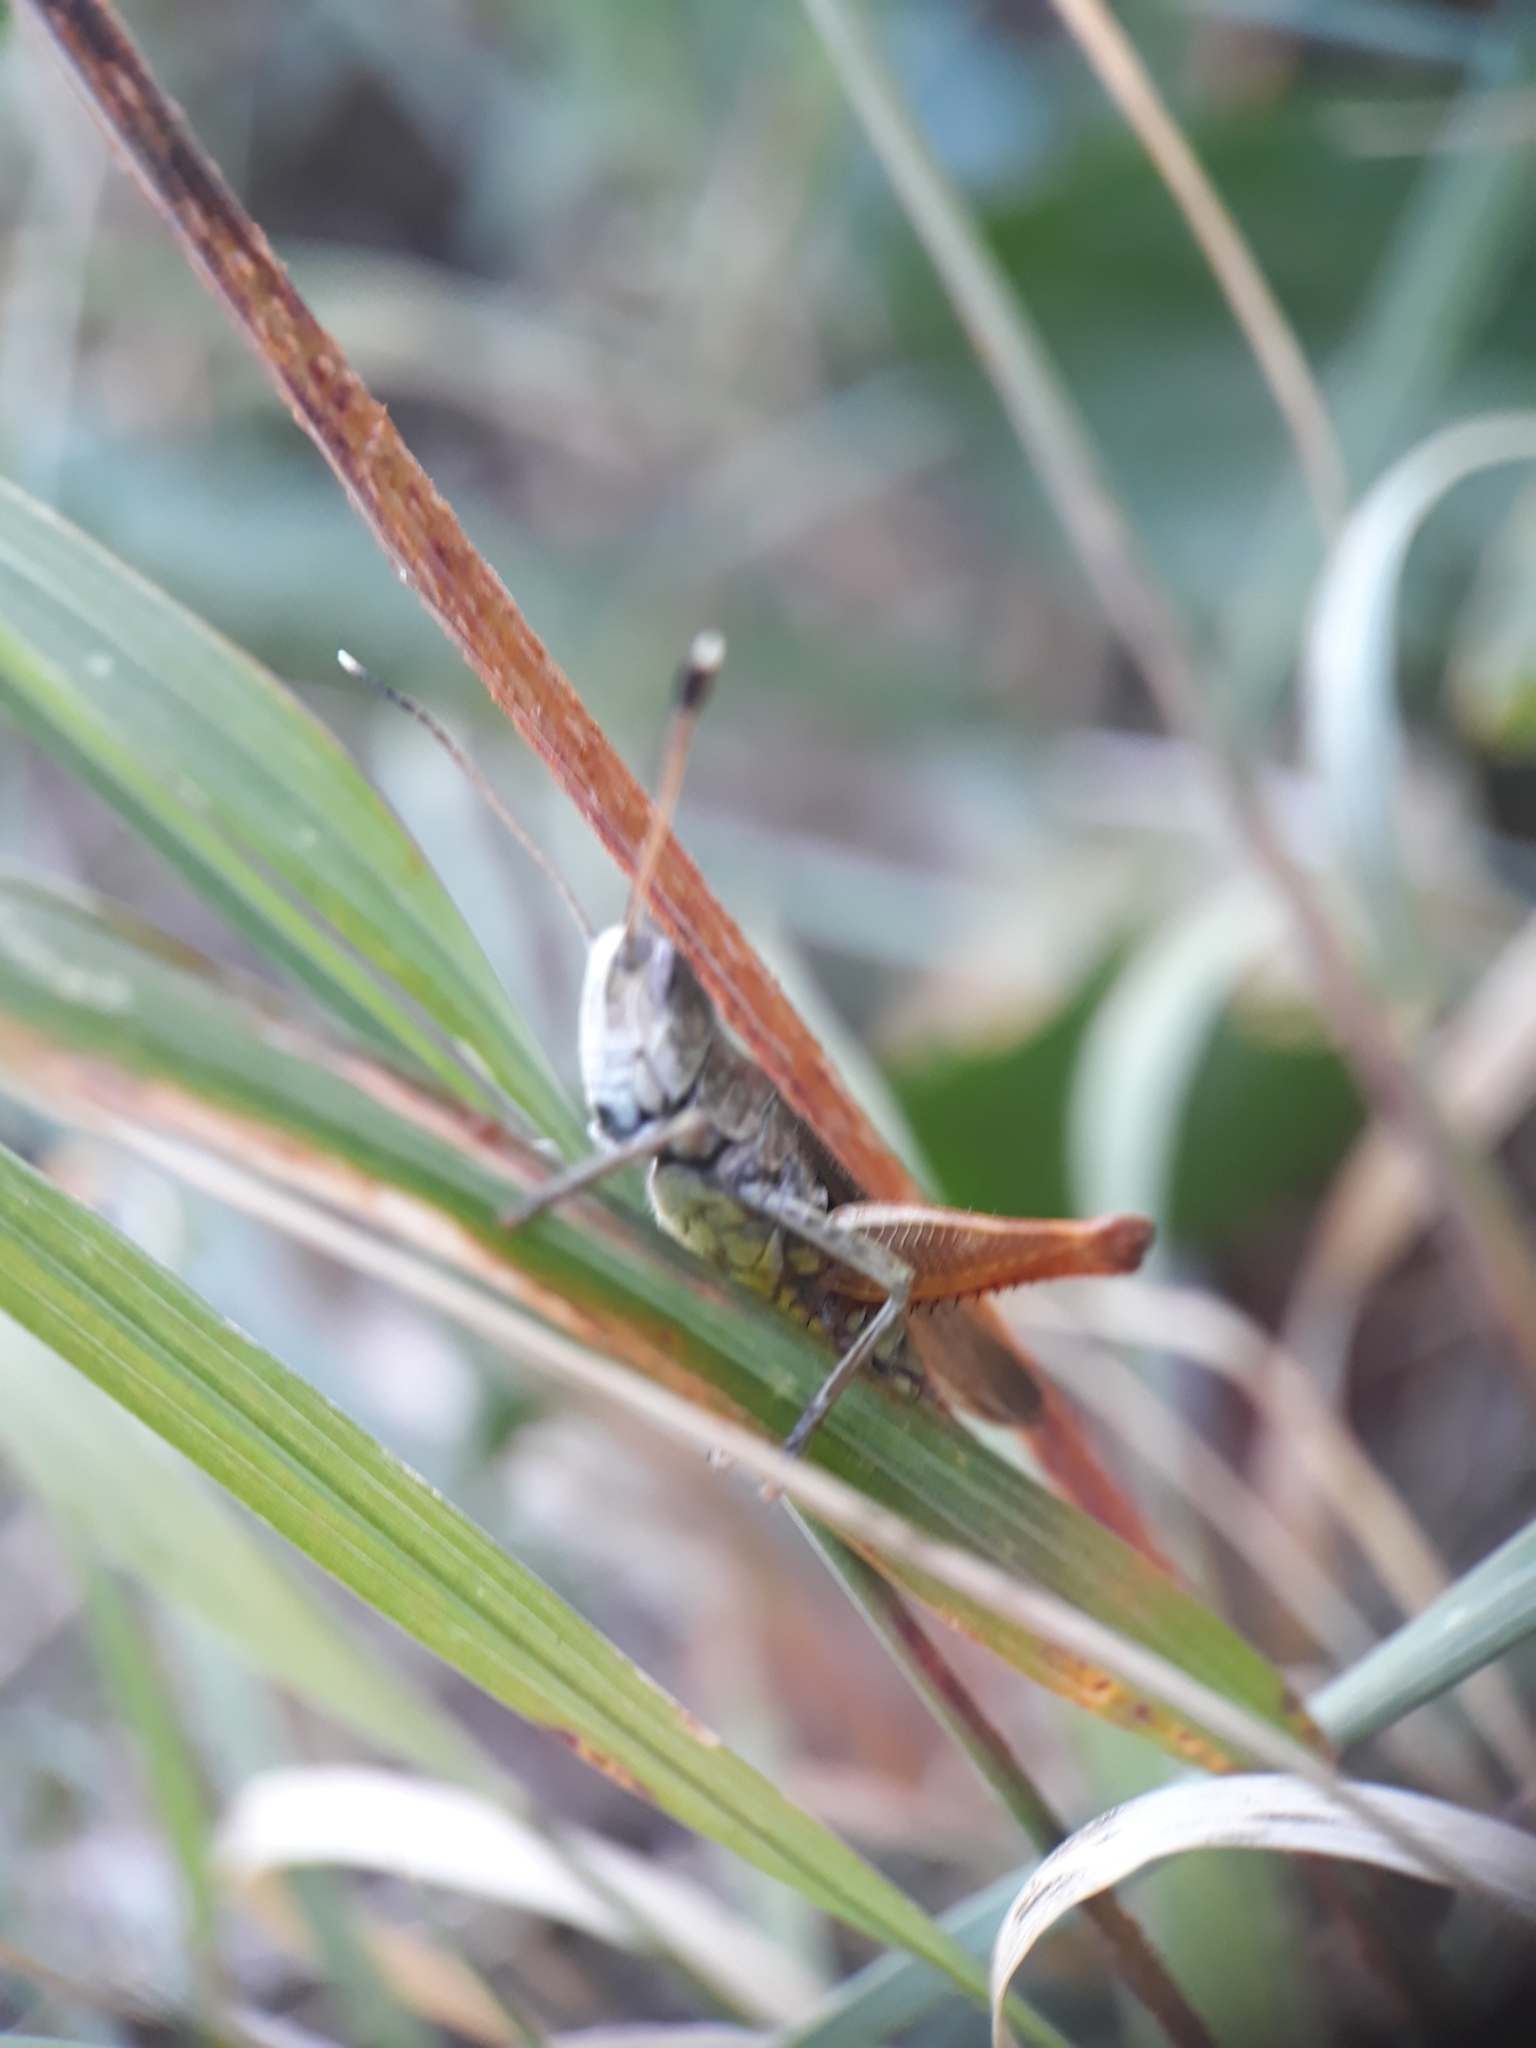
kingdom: Animalia
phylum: Arthropoda
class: Insecta
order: Orthoptera
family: Acrididae
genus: Gomphocerippus
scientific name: Gomphocerippus rufus
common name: Rufous grasshopper
